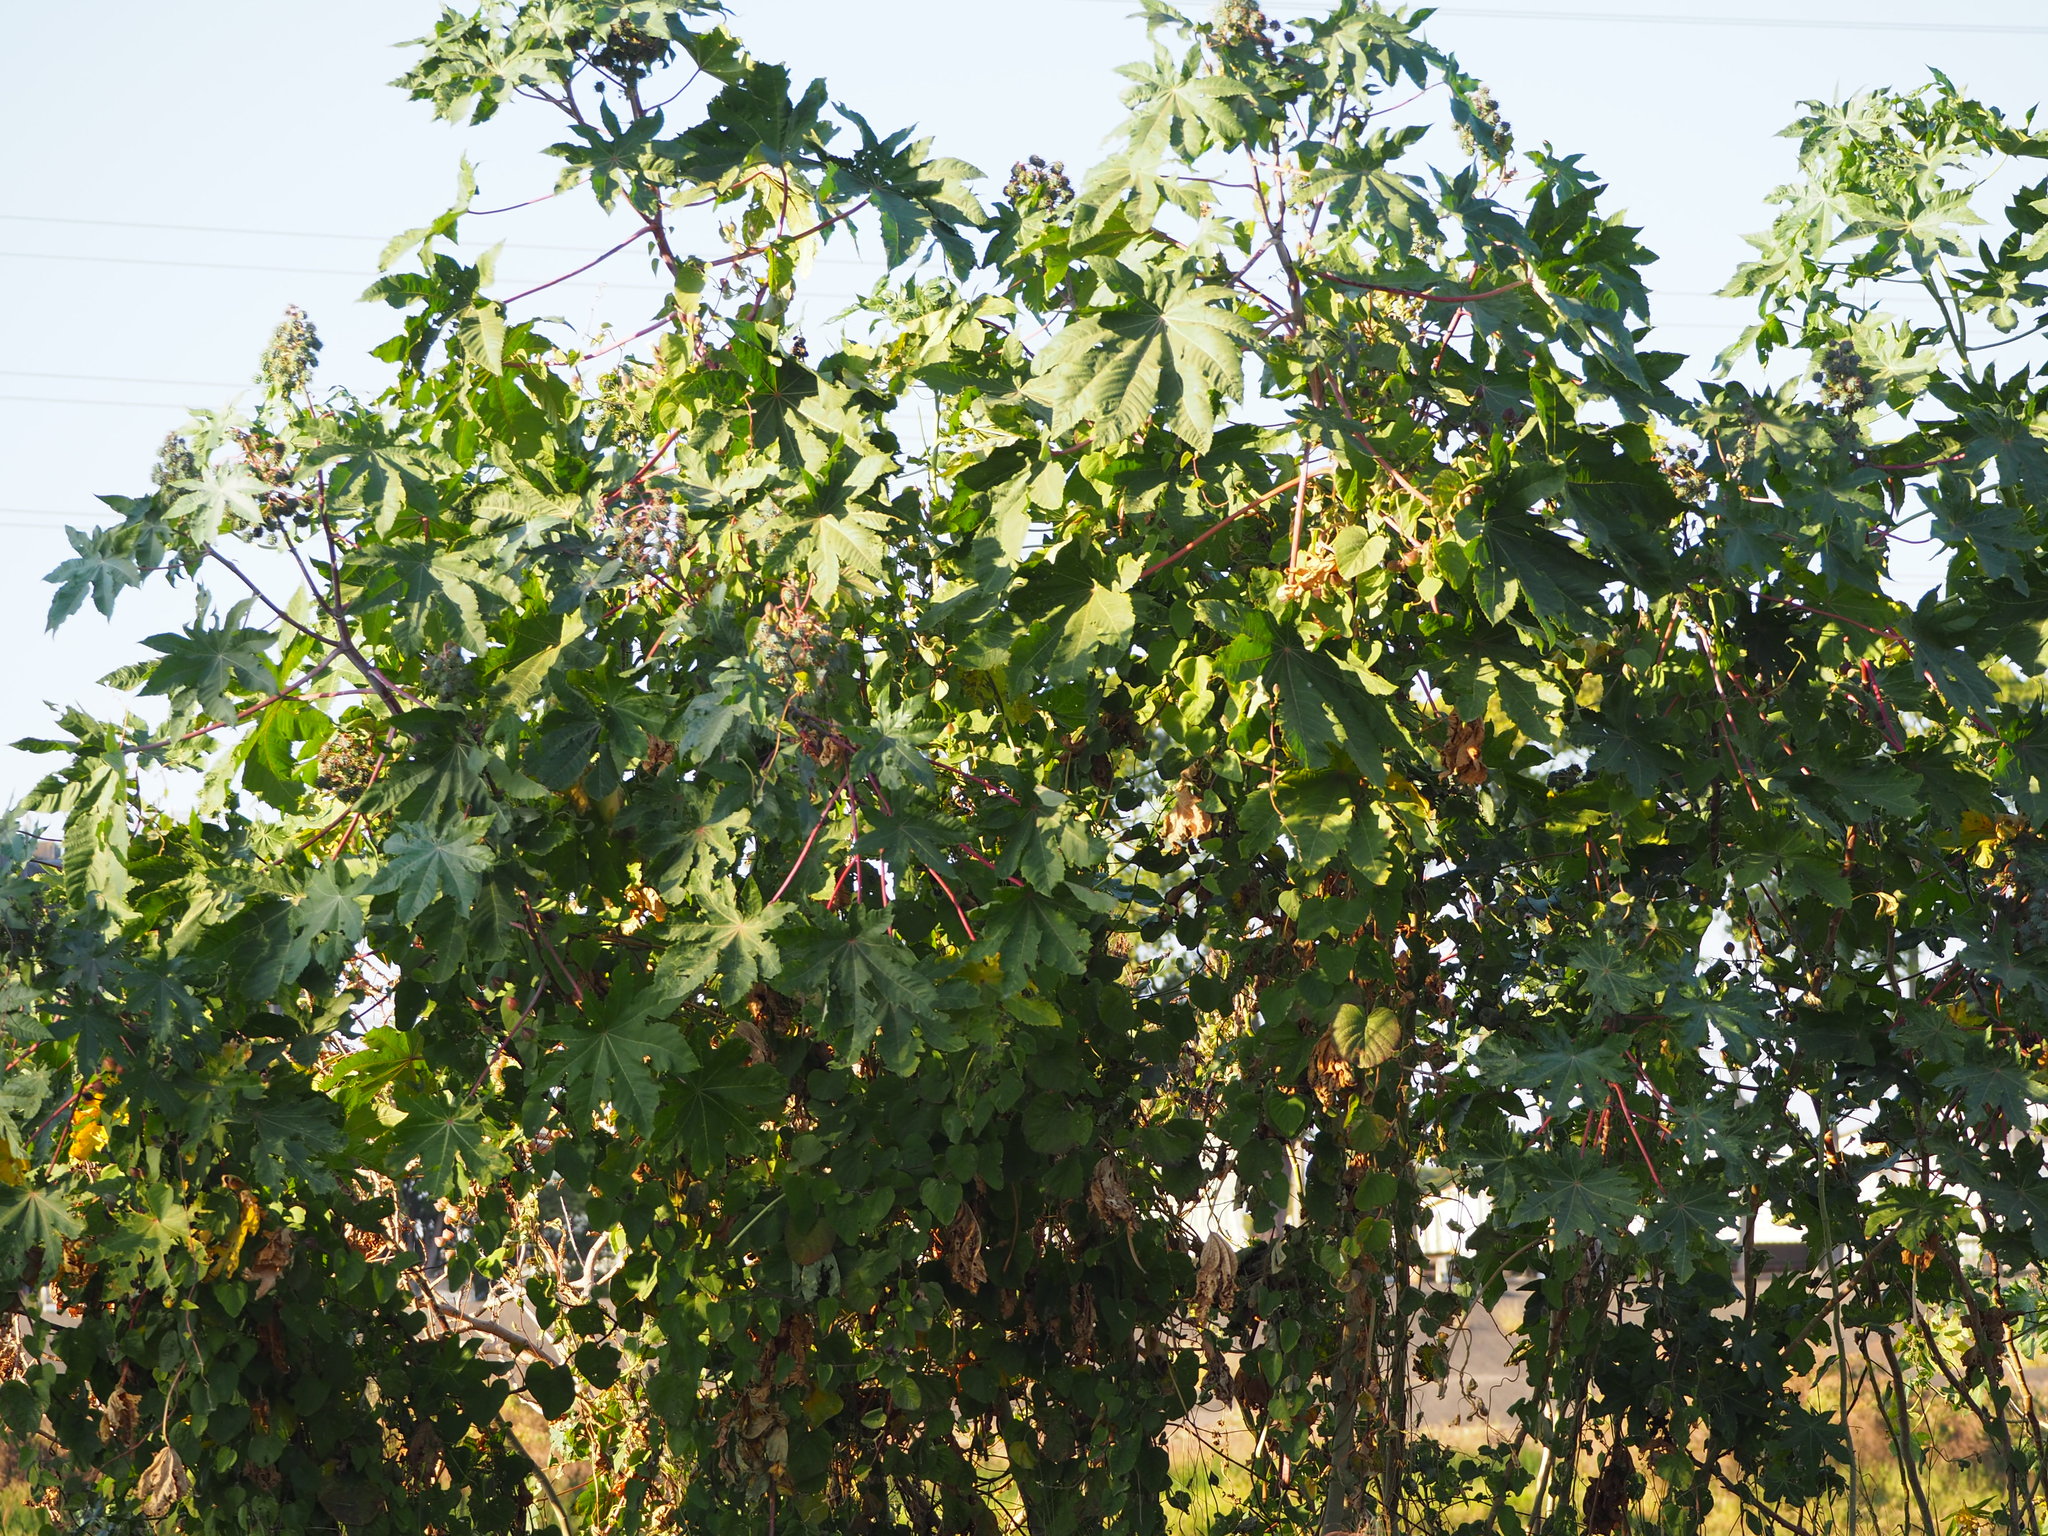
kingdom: Plantae
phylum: Tracheophyta
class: Magnoliopsida
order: Malpighiales
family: Euphorbiaceae
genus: Ricinus
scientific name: Ricinus communis
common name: Castor-oil-plant
